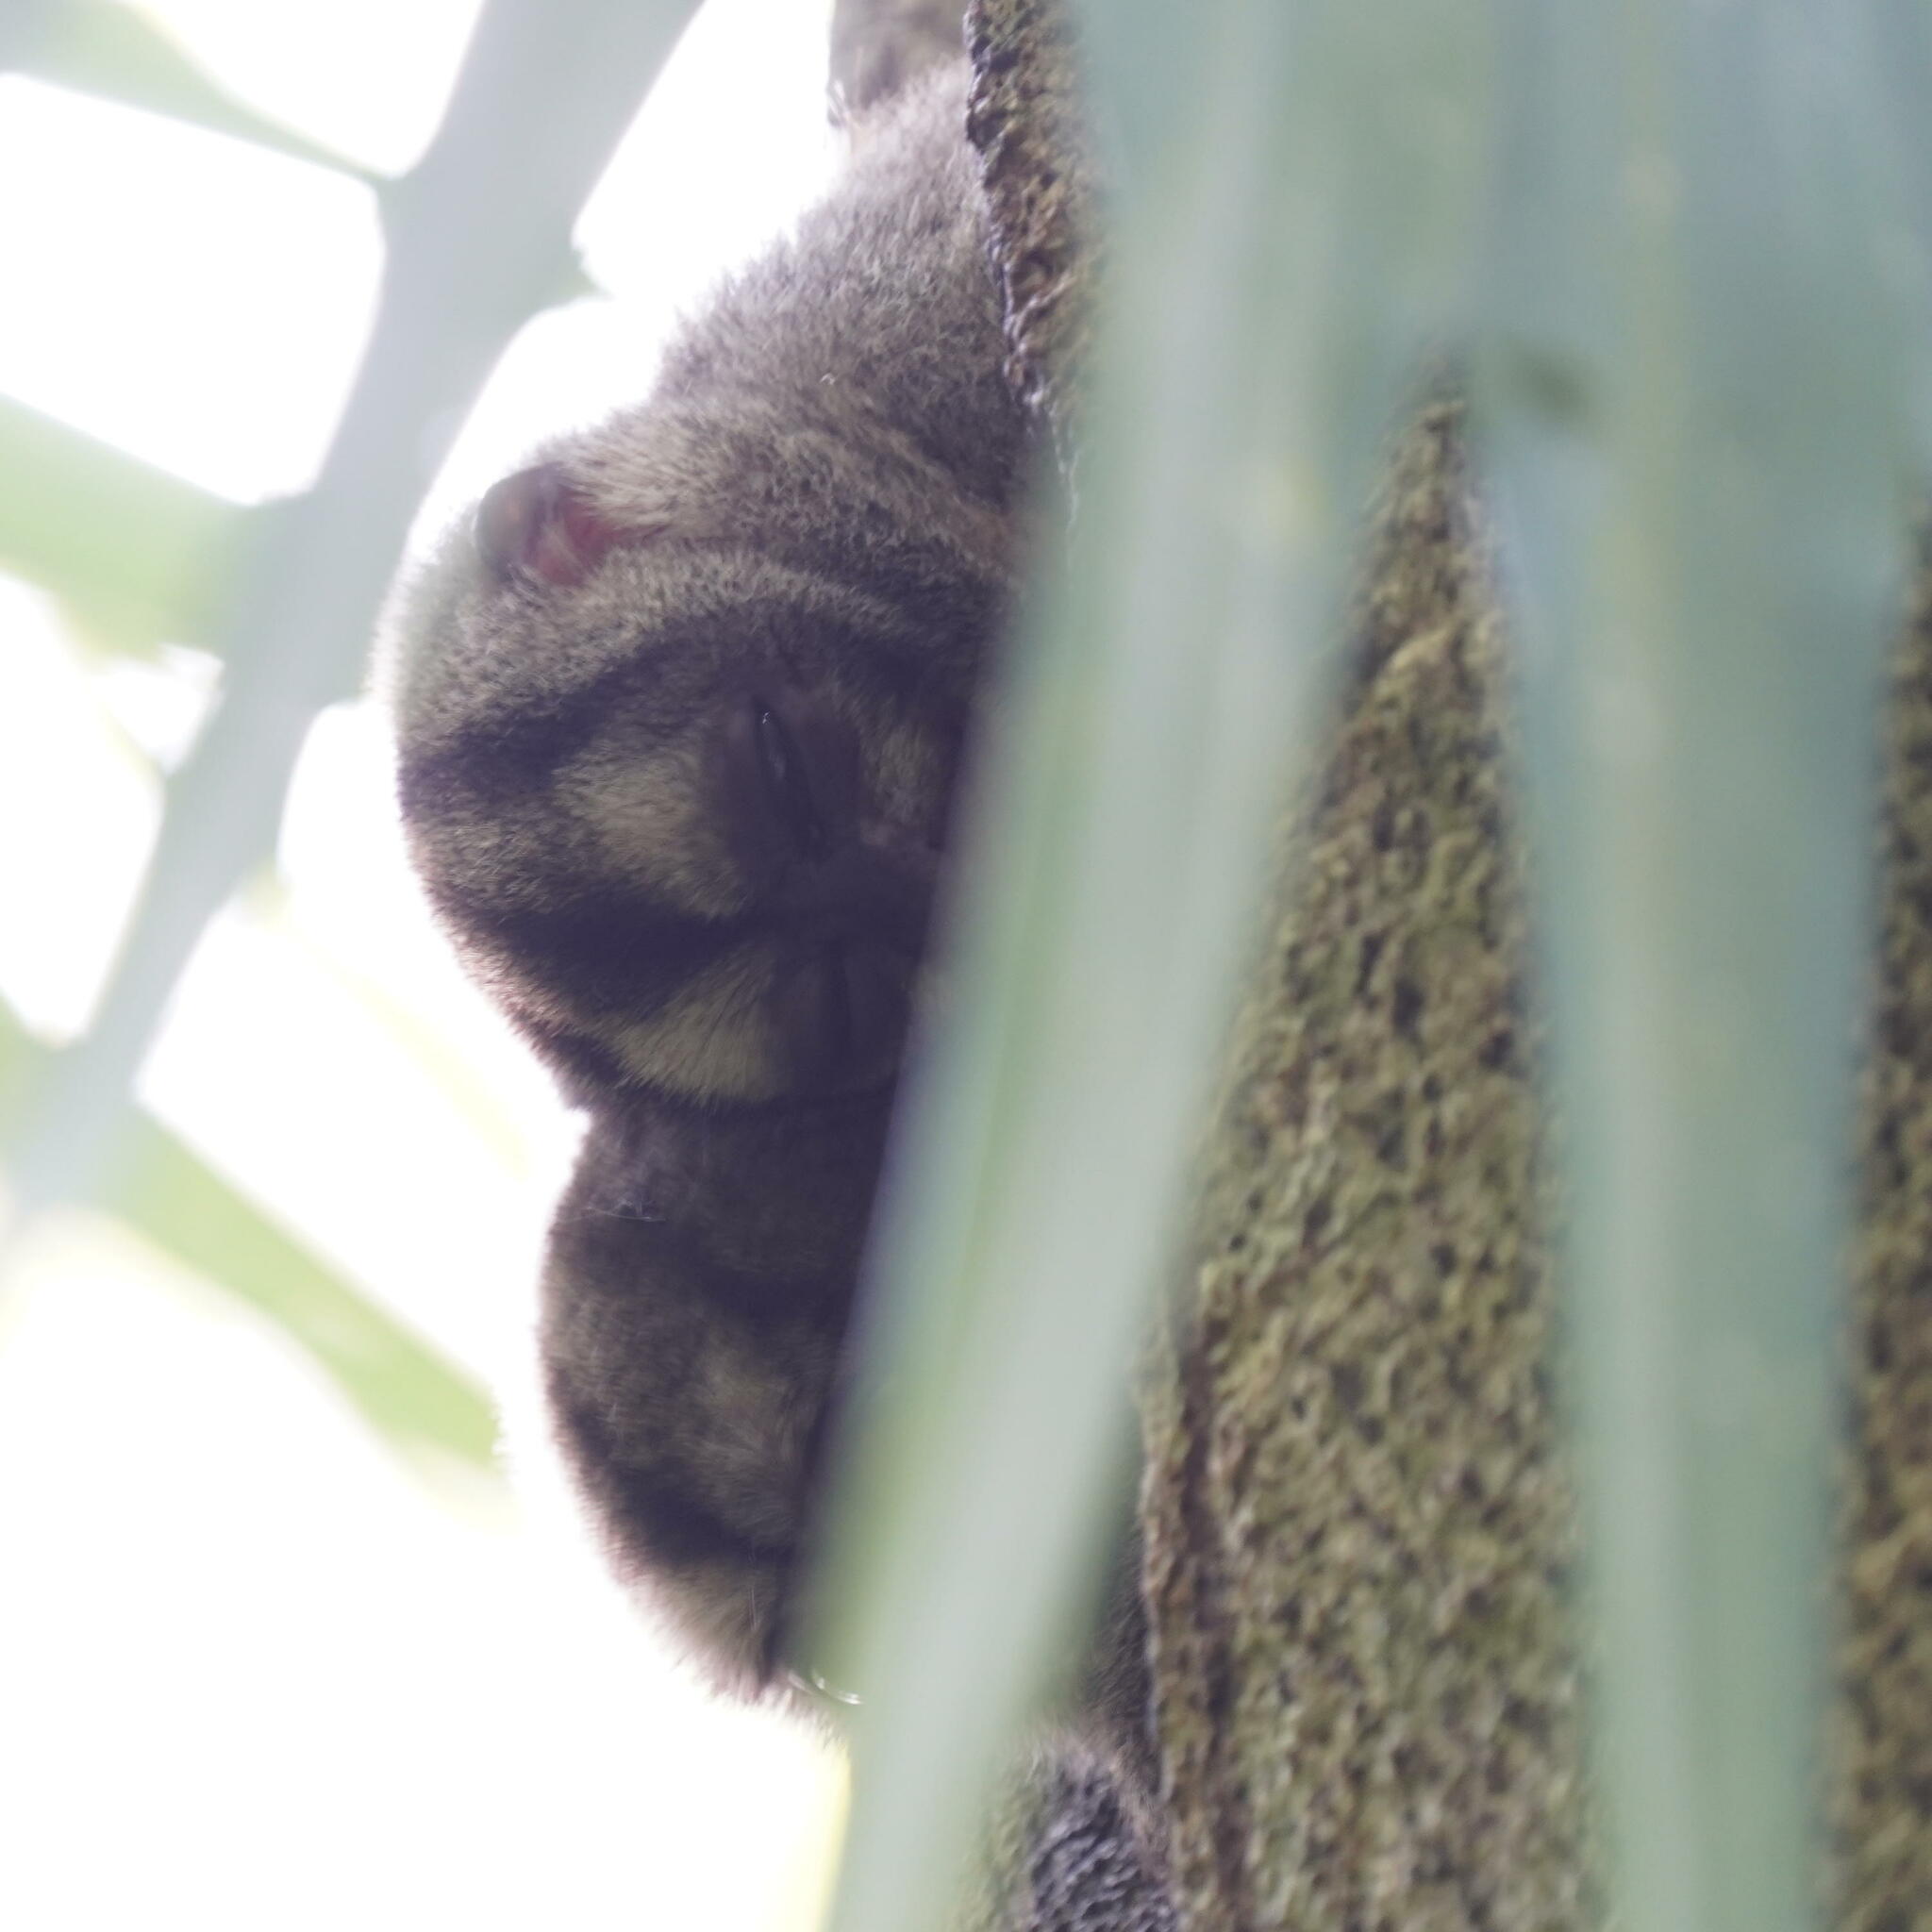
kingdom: Animalia
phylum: Chordata
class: Mammalia
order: Primates
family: Aotidae
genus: Aotus
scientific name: Aotus zonalis
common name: Panamanian night monkey
